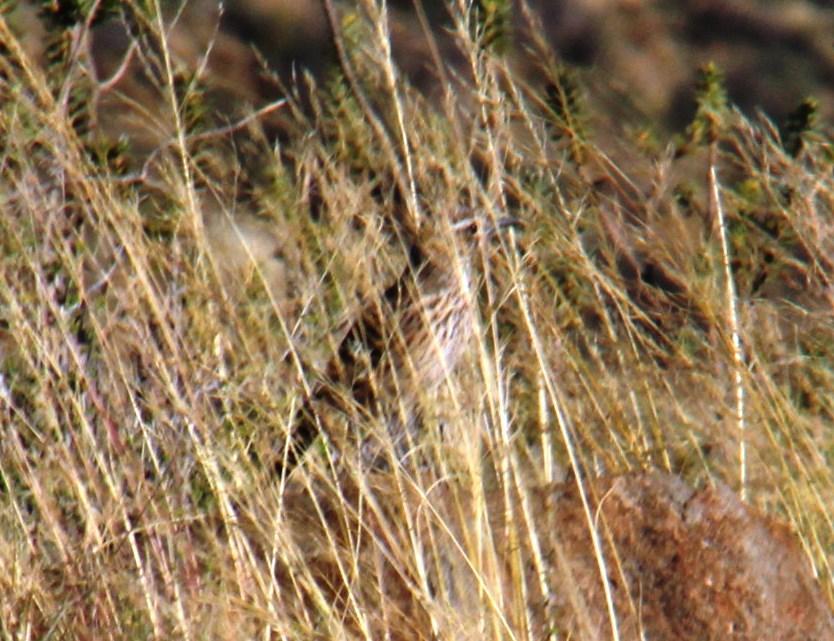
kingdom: Animalia
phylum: Chordata
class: Aves
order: Passeriformes
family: Alaudidae
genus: Certhilauda
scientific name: Certhilauda subcoronata
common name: Karoo long-billed lark
